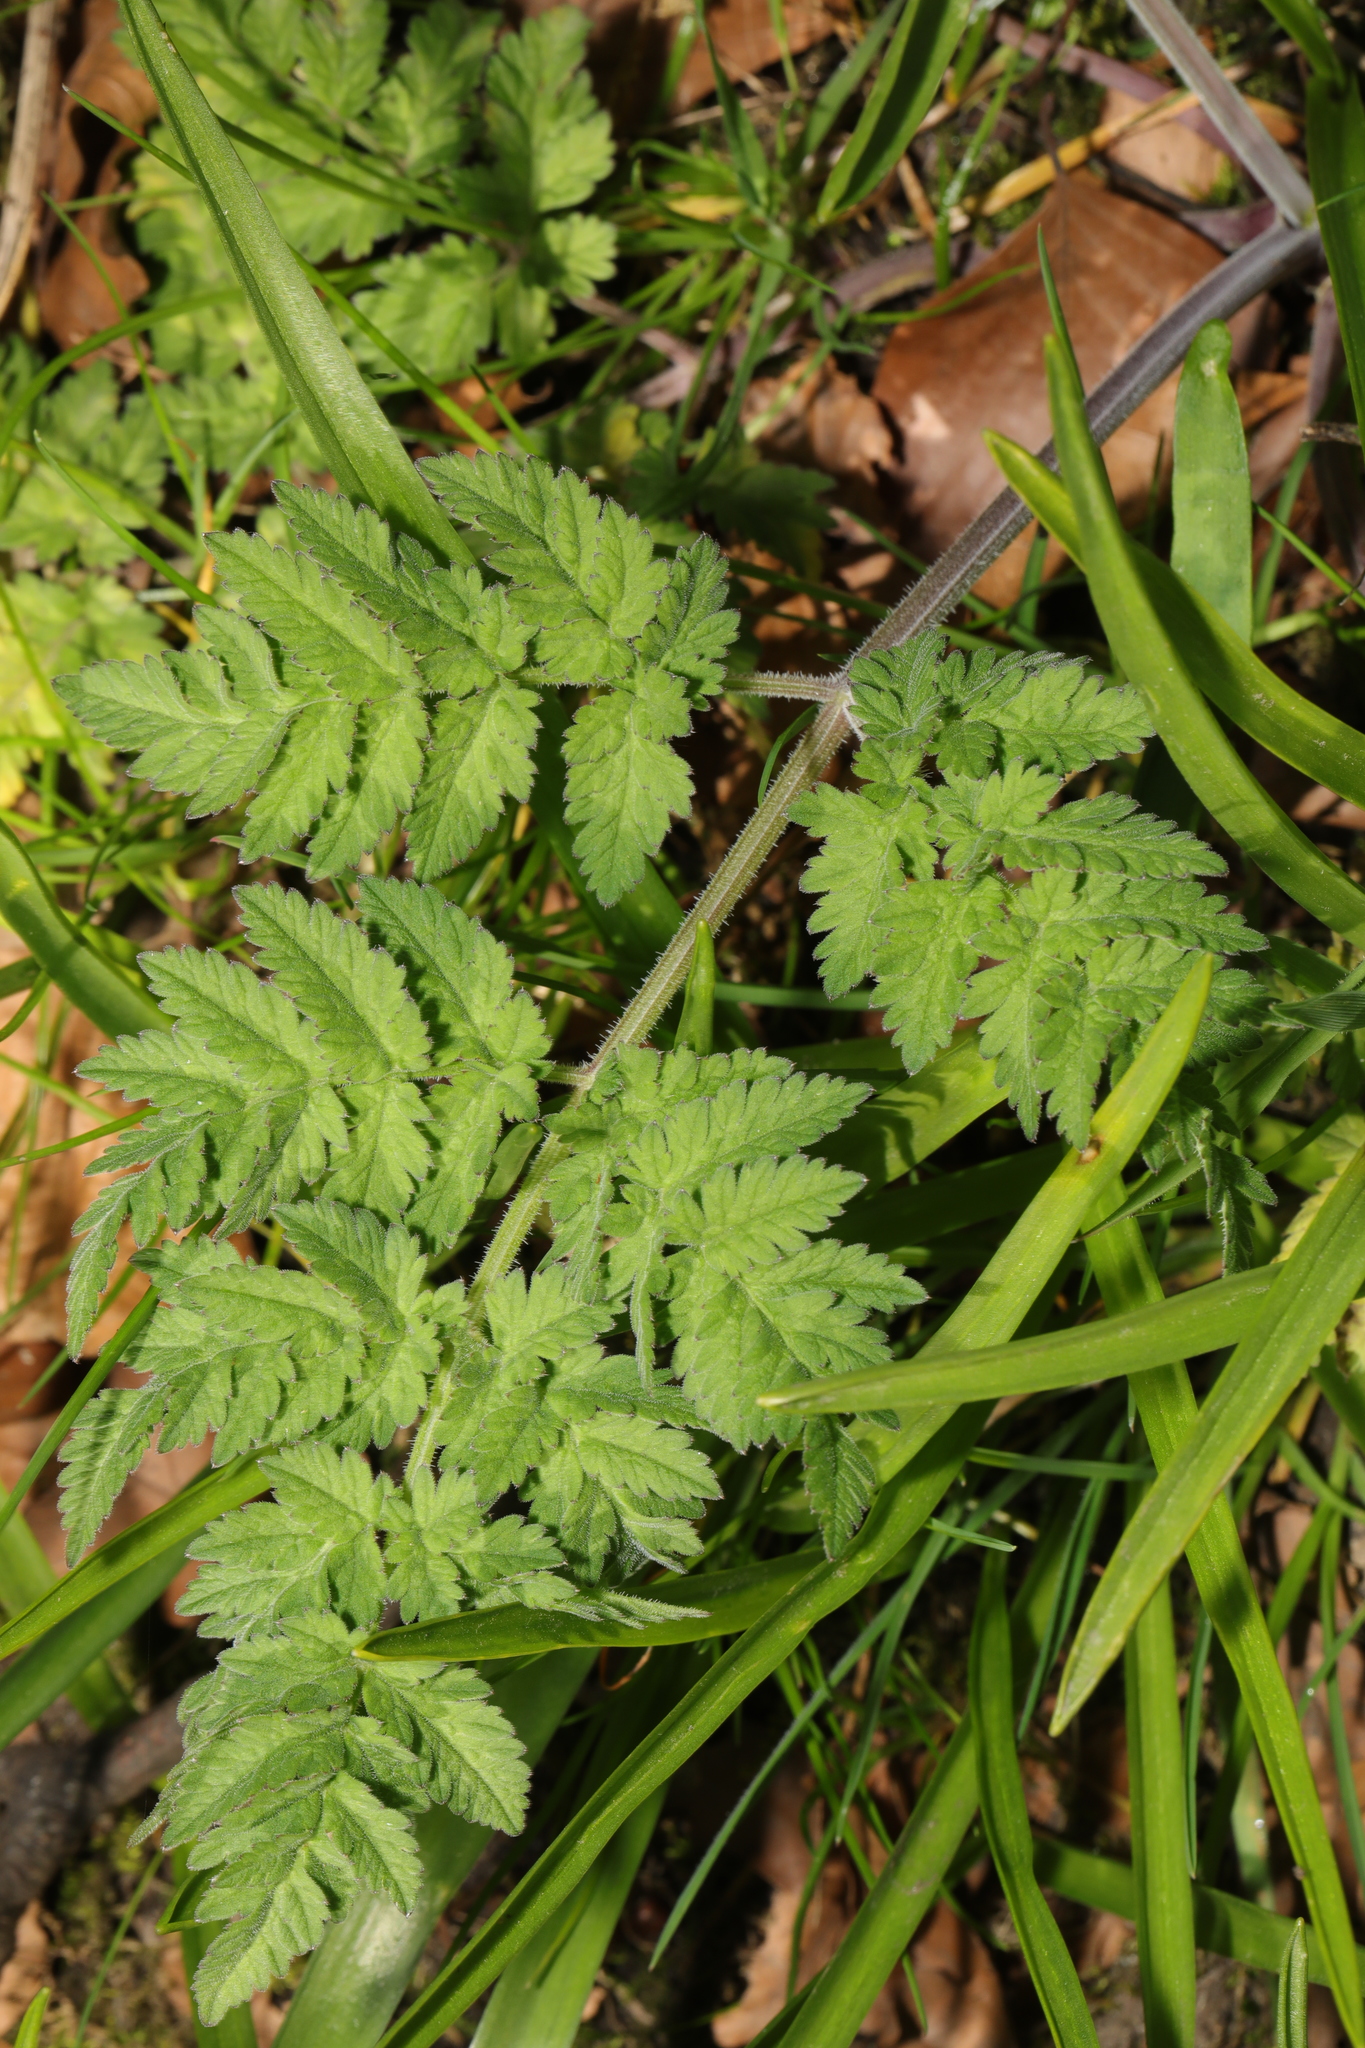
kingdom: Plantae
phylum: Tracheophyta
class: Magnoliopsida
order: Apiales
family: Apiaceae
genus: Anthriscus
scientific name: Anthriscus sylvestris
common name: Cow parsley
